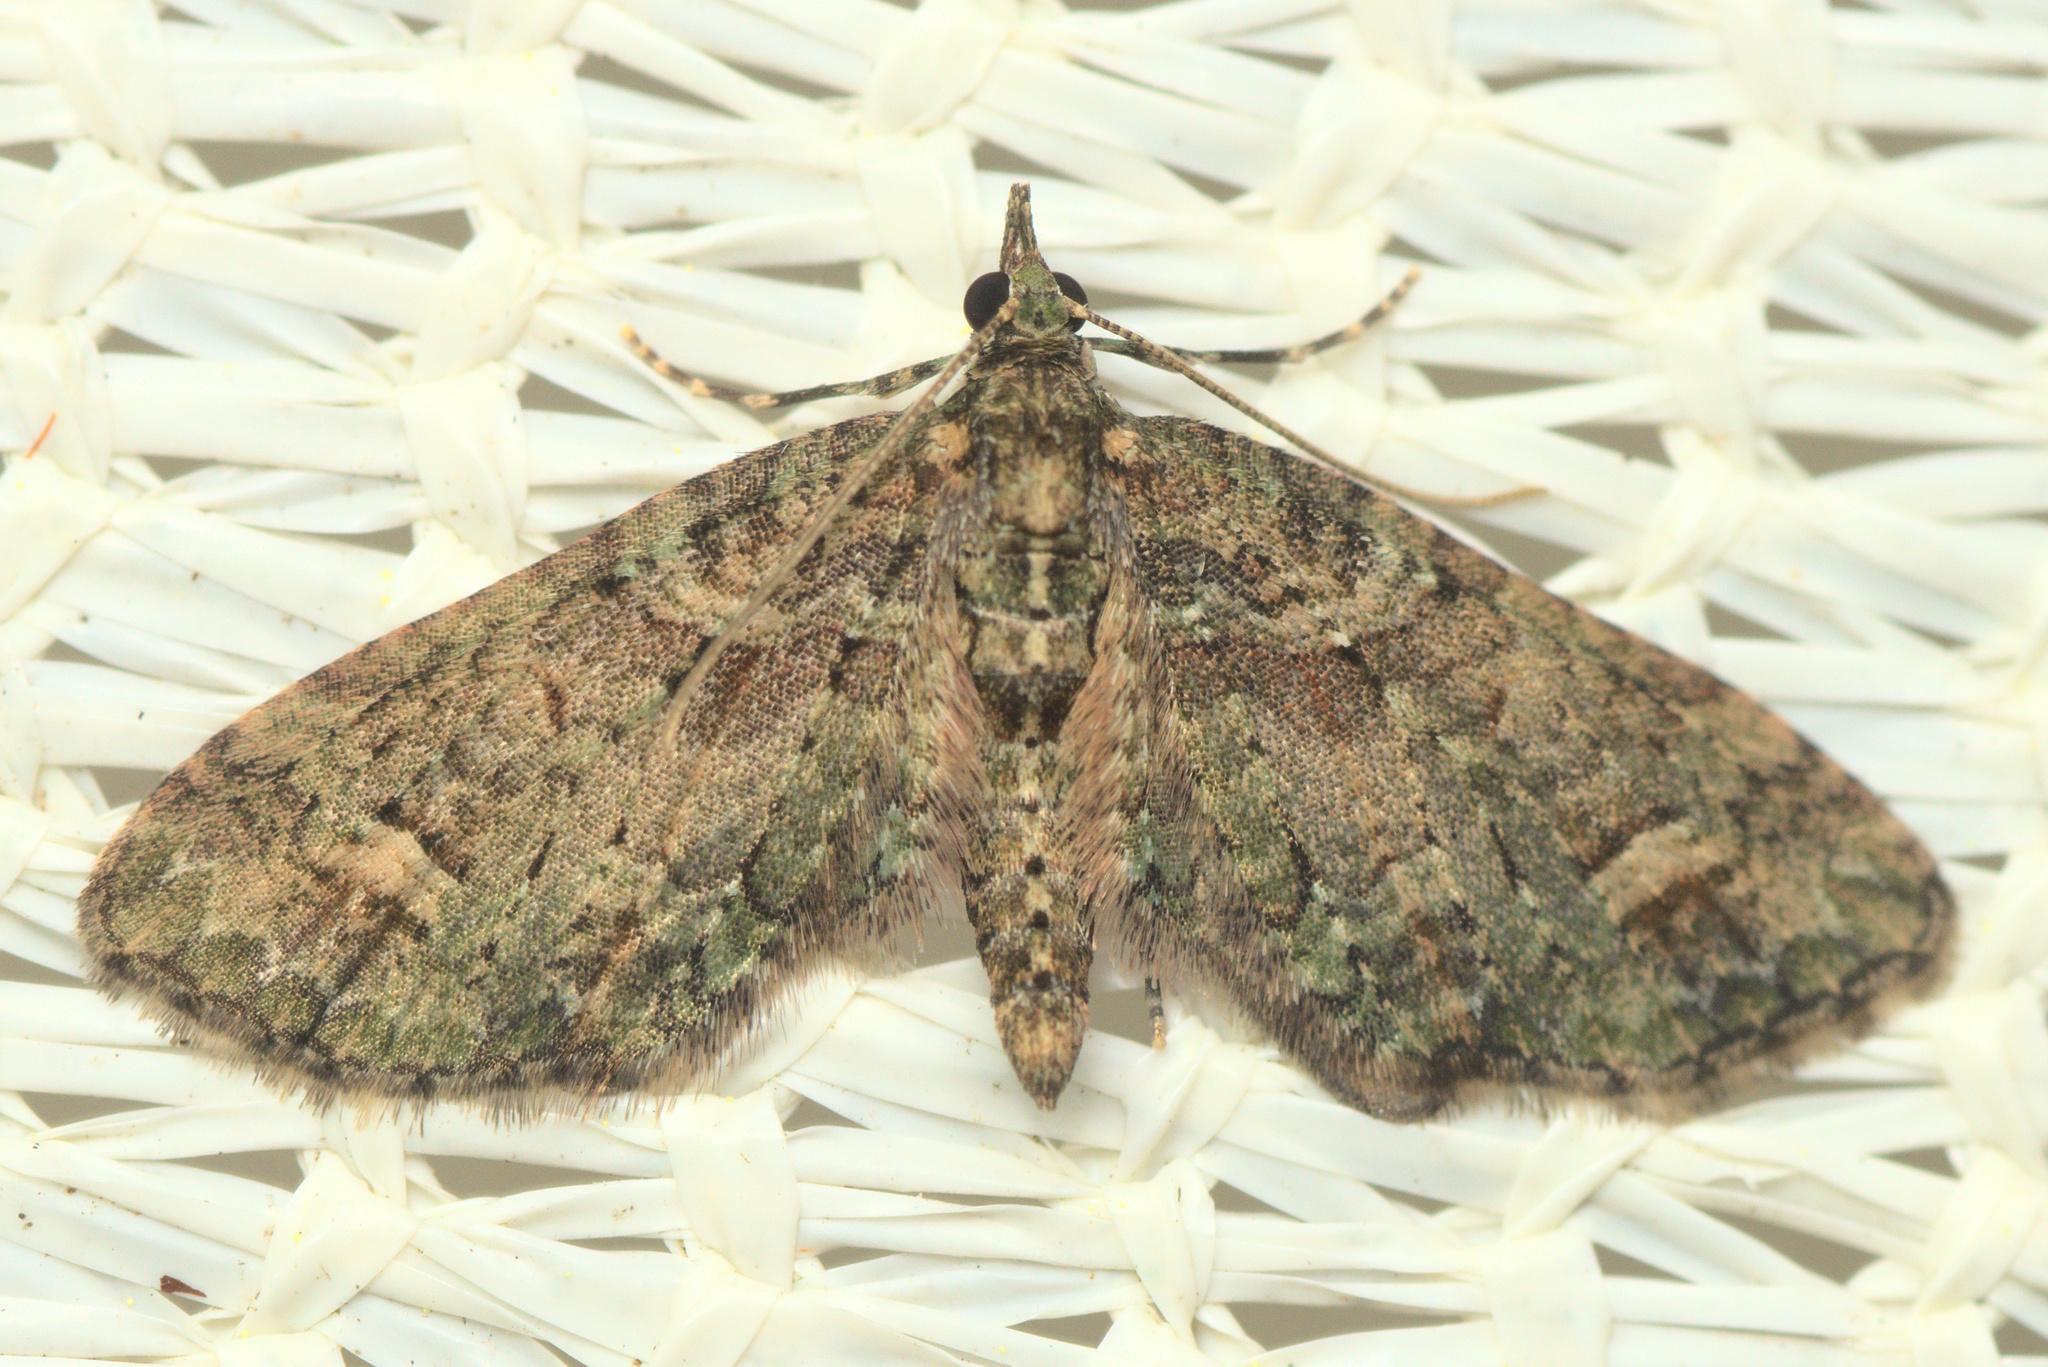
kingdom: Animalia
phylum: Arthropoda
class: Insecta
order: Lepidoptera
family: Geometridae
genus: Idaea
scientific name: Idaea mutanda
